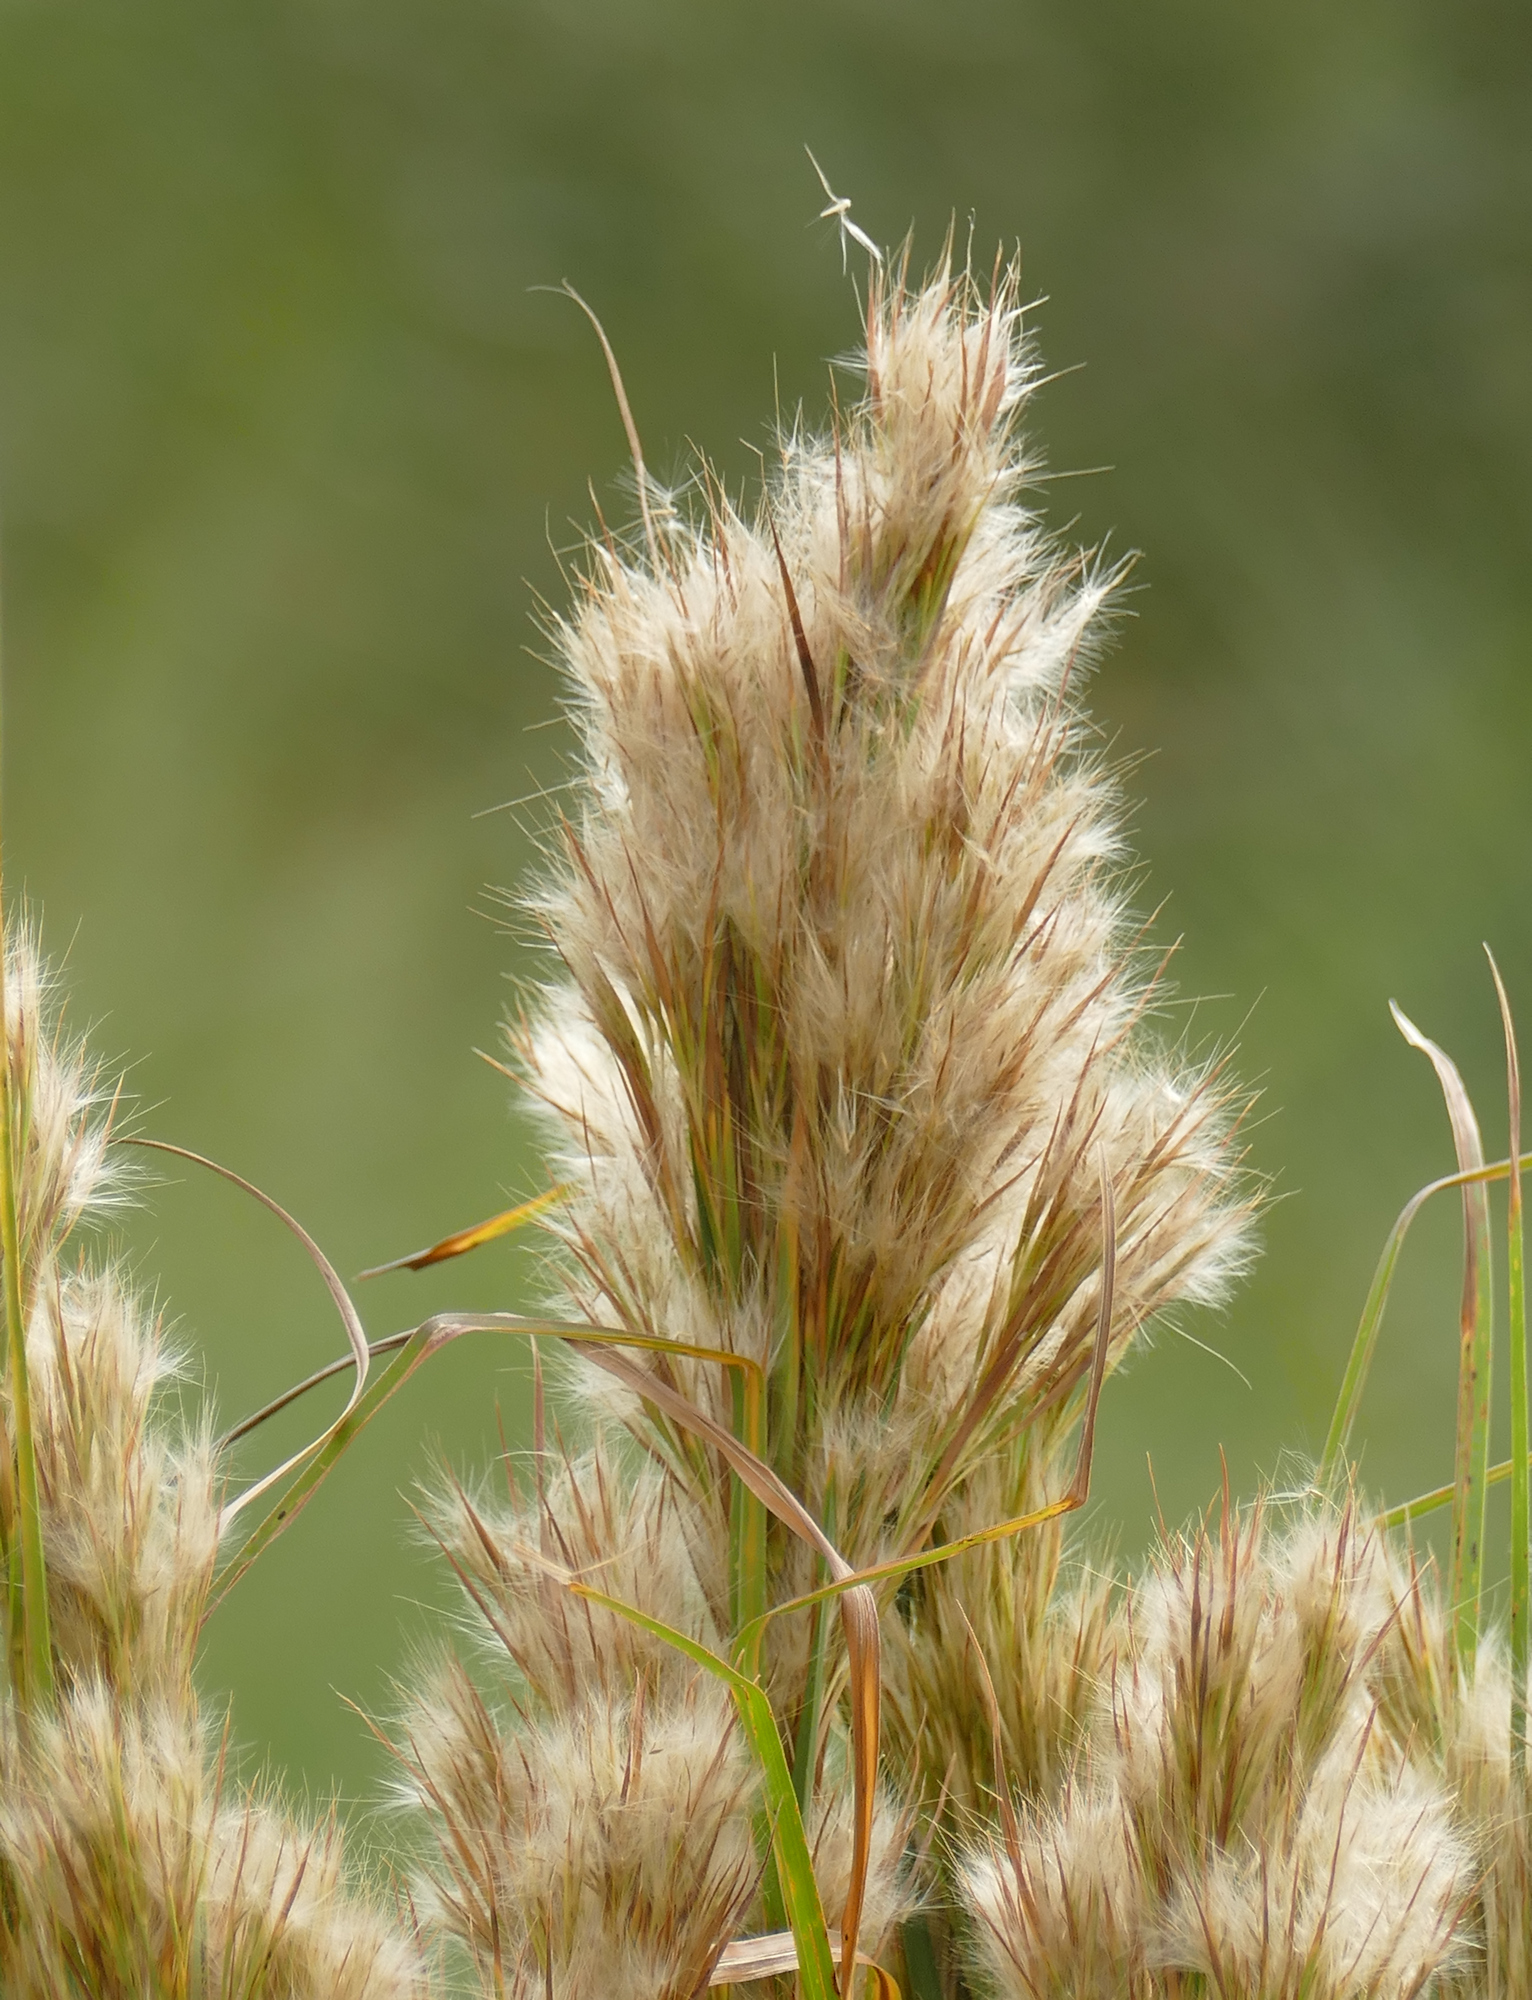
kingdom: Plantae
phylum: Tracheophyta
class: Liliopsida
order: Poales
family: Poaceae
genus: Andropogon
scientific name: Andropogon tenuispatheus
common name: Bushy bluestem
